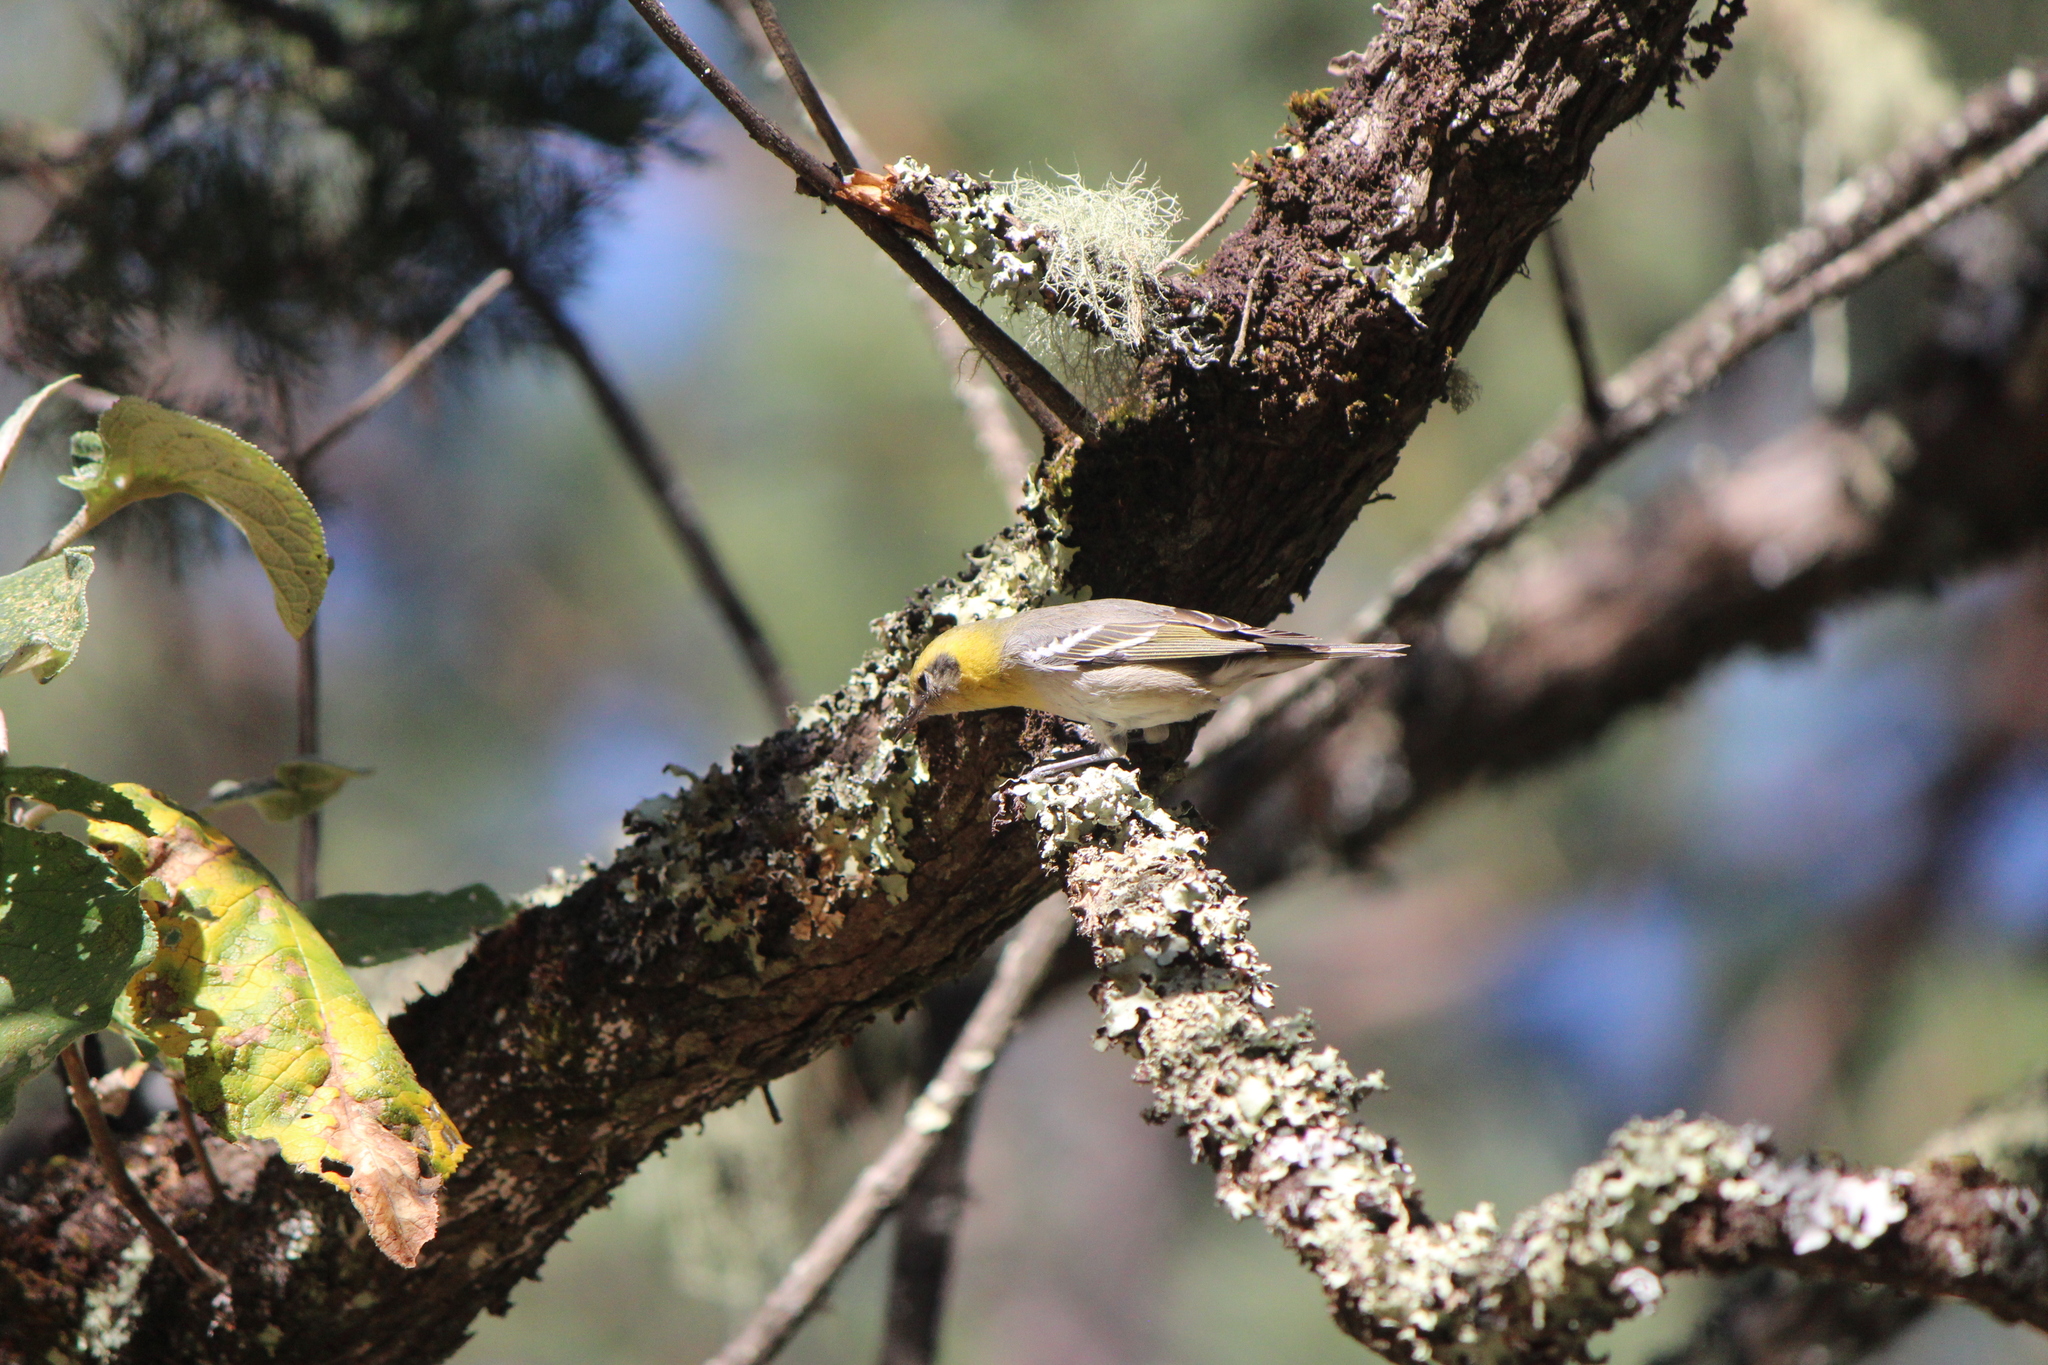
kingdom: Animalia
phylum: Chordata
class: Aves
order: Passeriformes
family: Peucedramidae
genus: Peucedramus
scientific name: Peucedramus taeniatus
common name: Olive warbler
